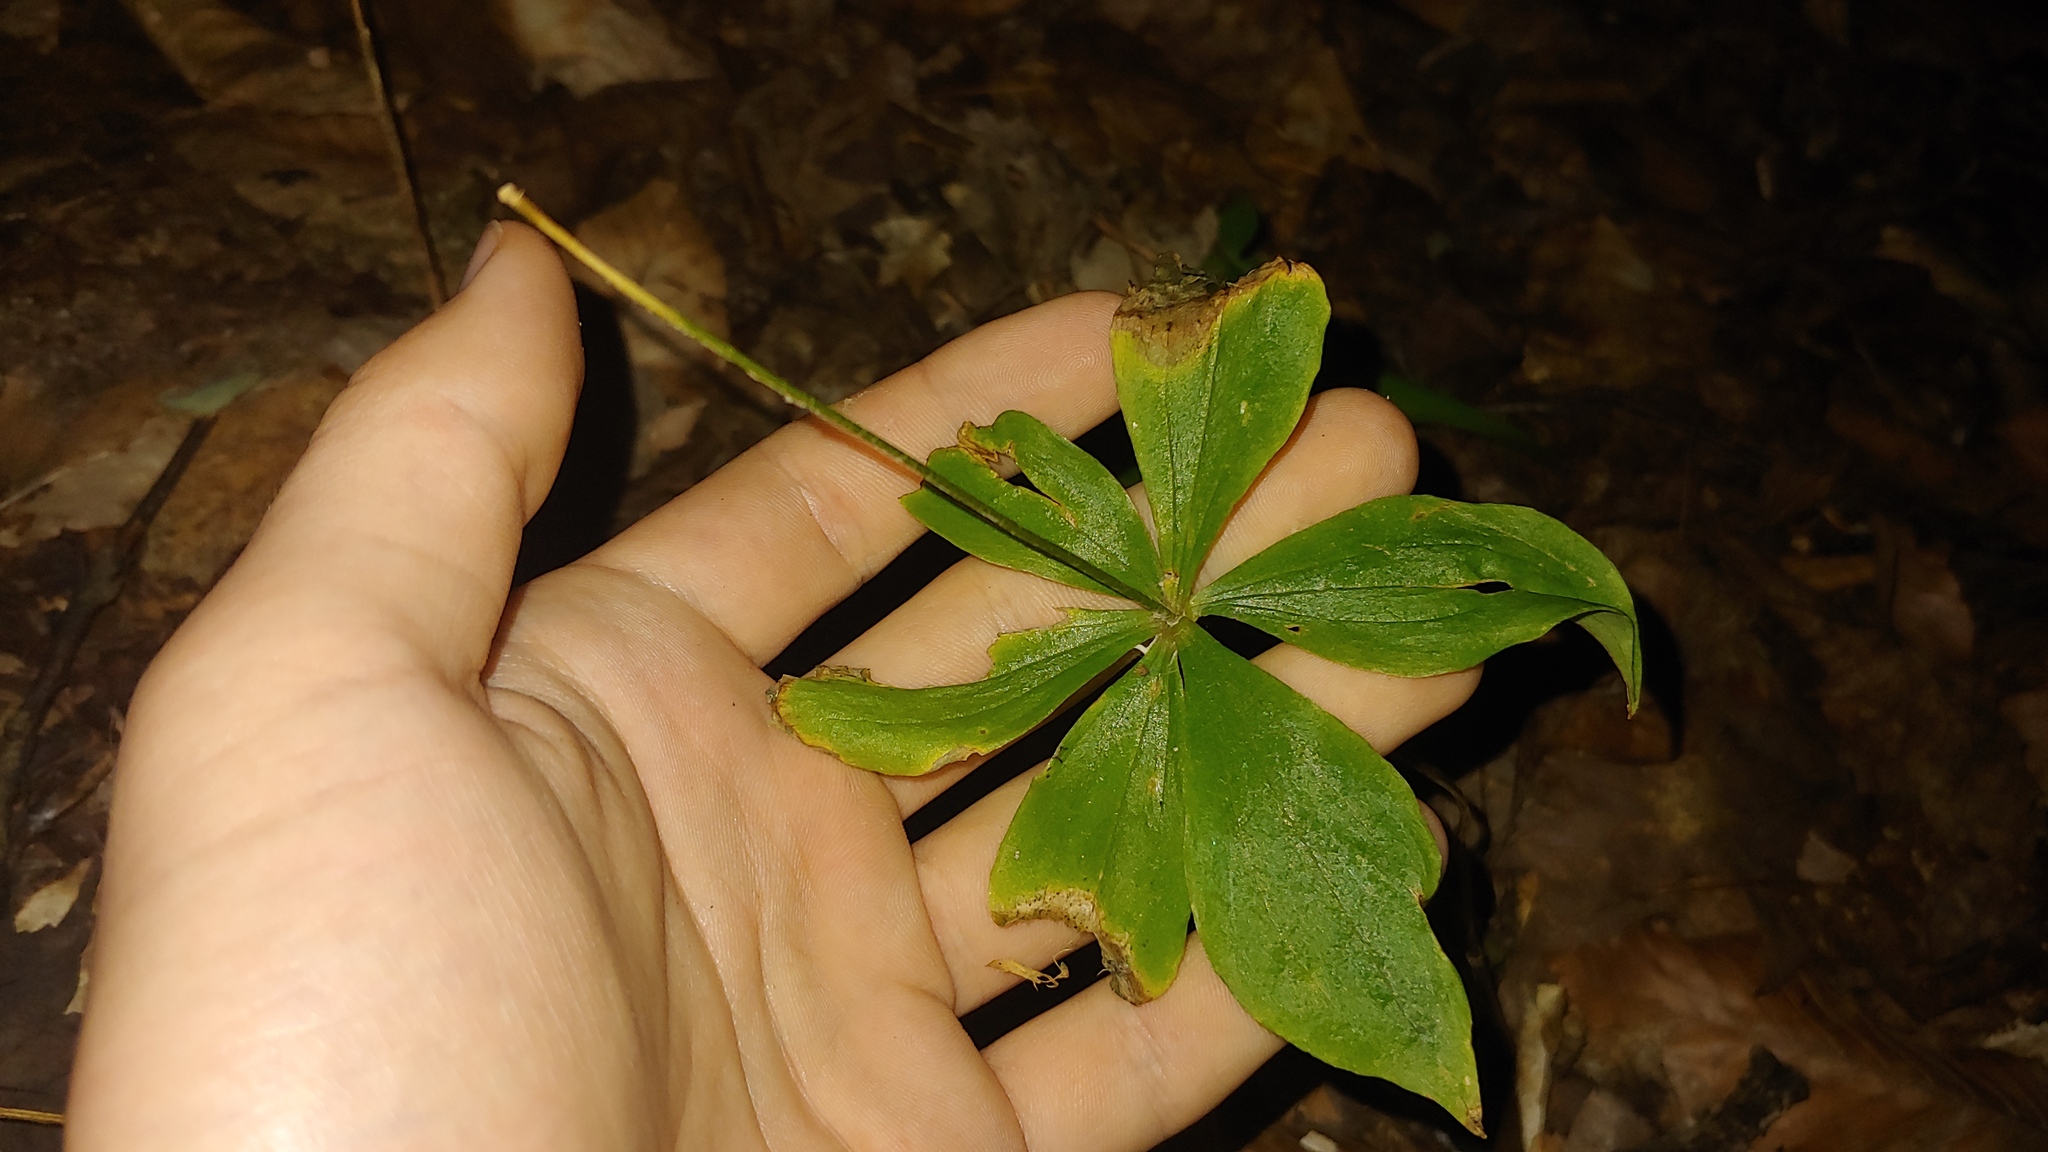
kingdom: Plantae
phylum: Tracheophyta
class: Liliopsida
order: Liliales
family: Liliaceae
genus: Medeola
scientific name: Medeola virginiana
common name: Indian cucumber-root
